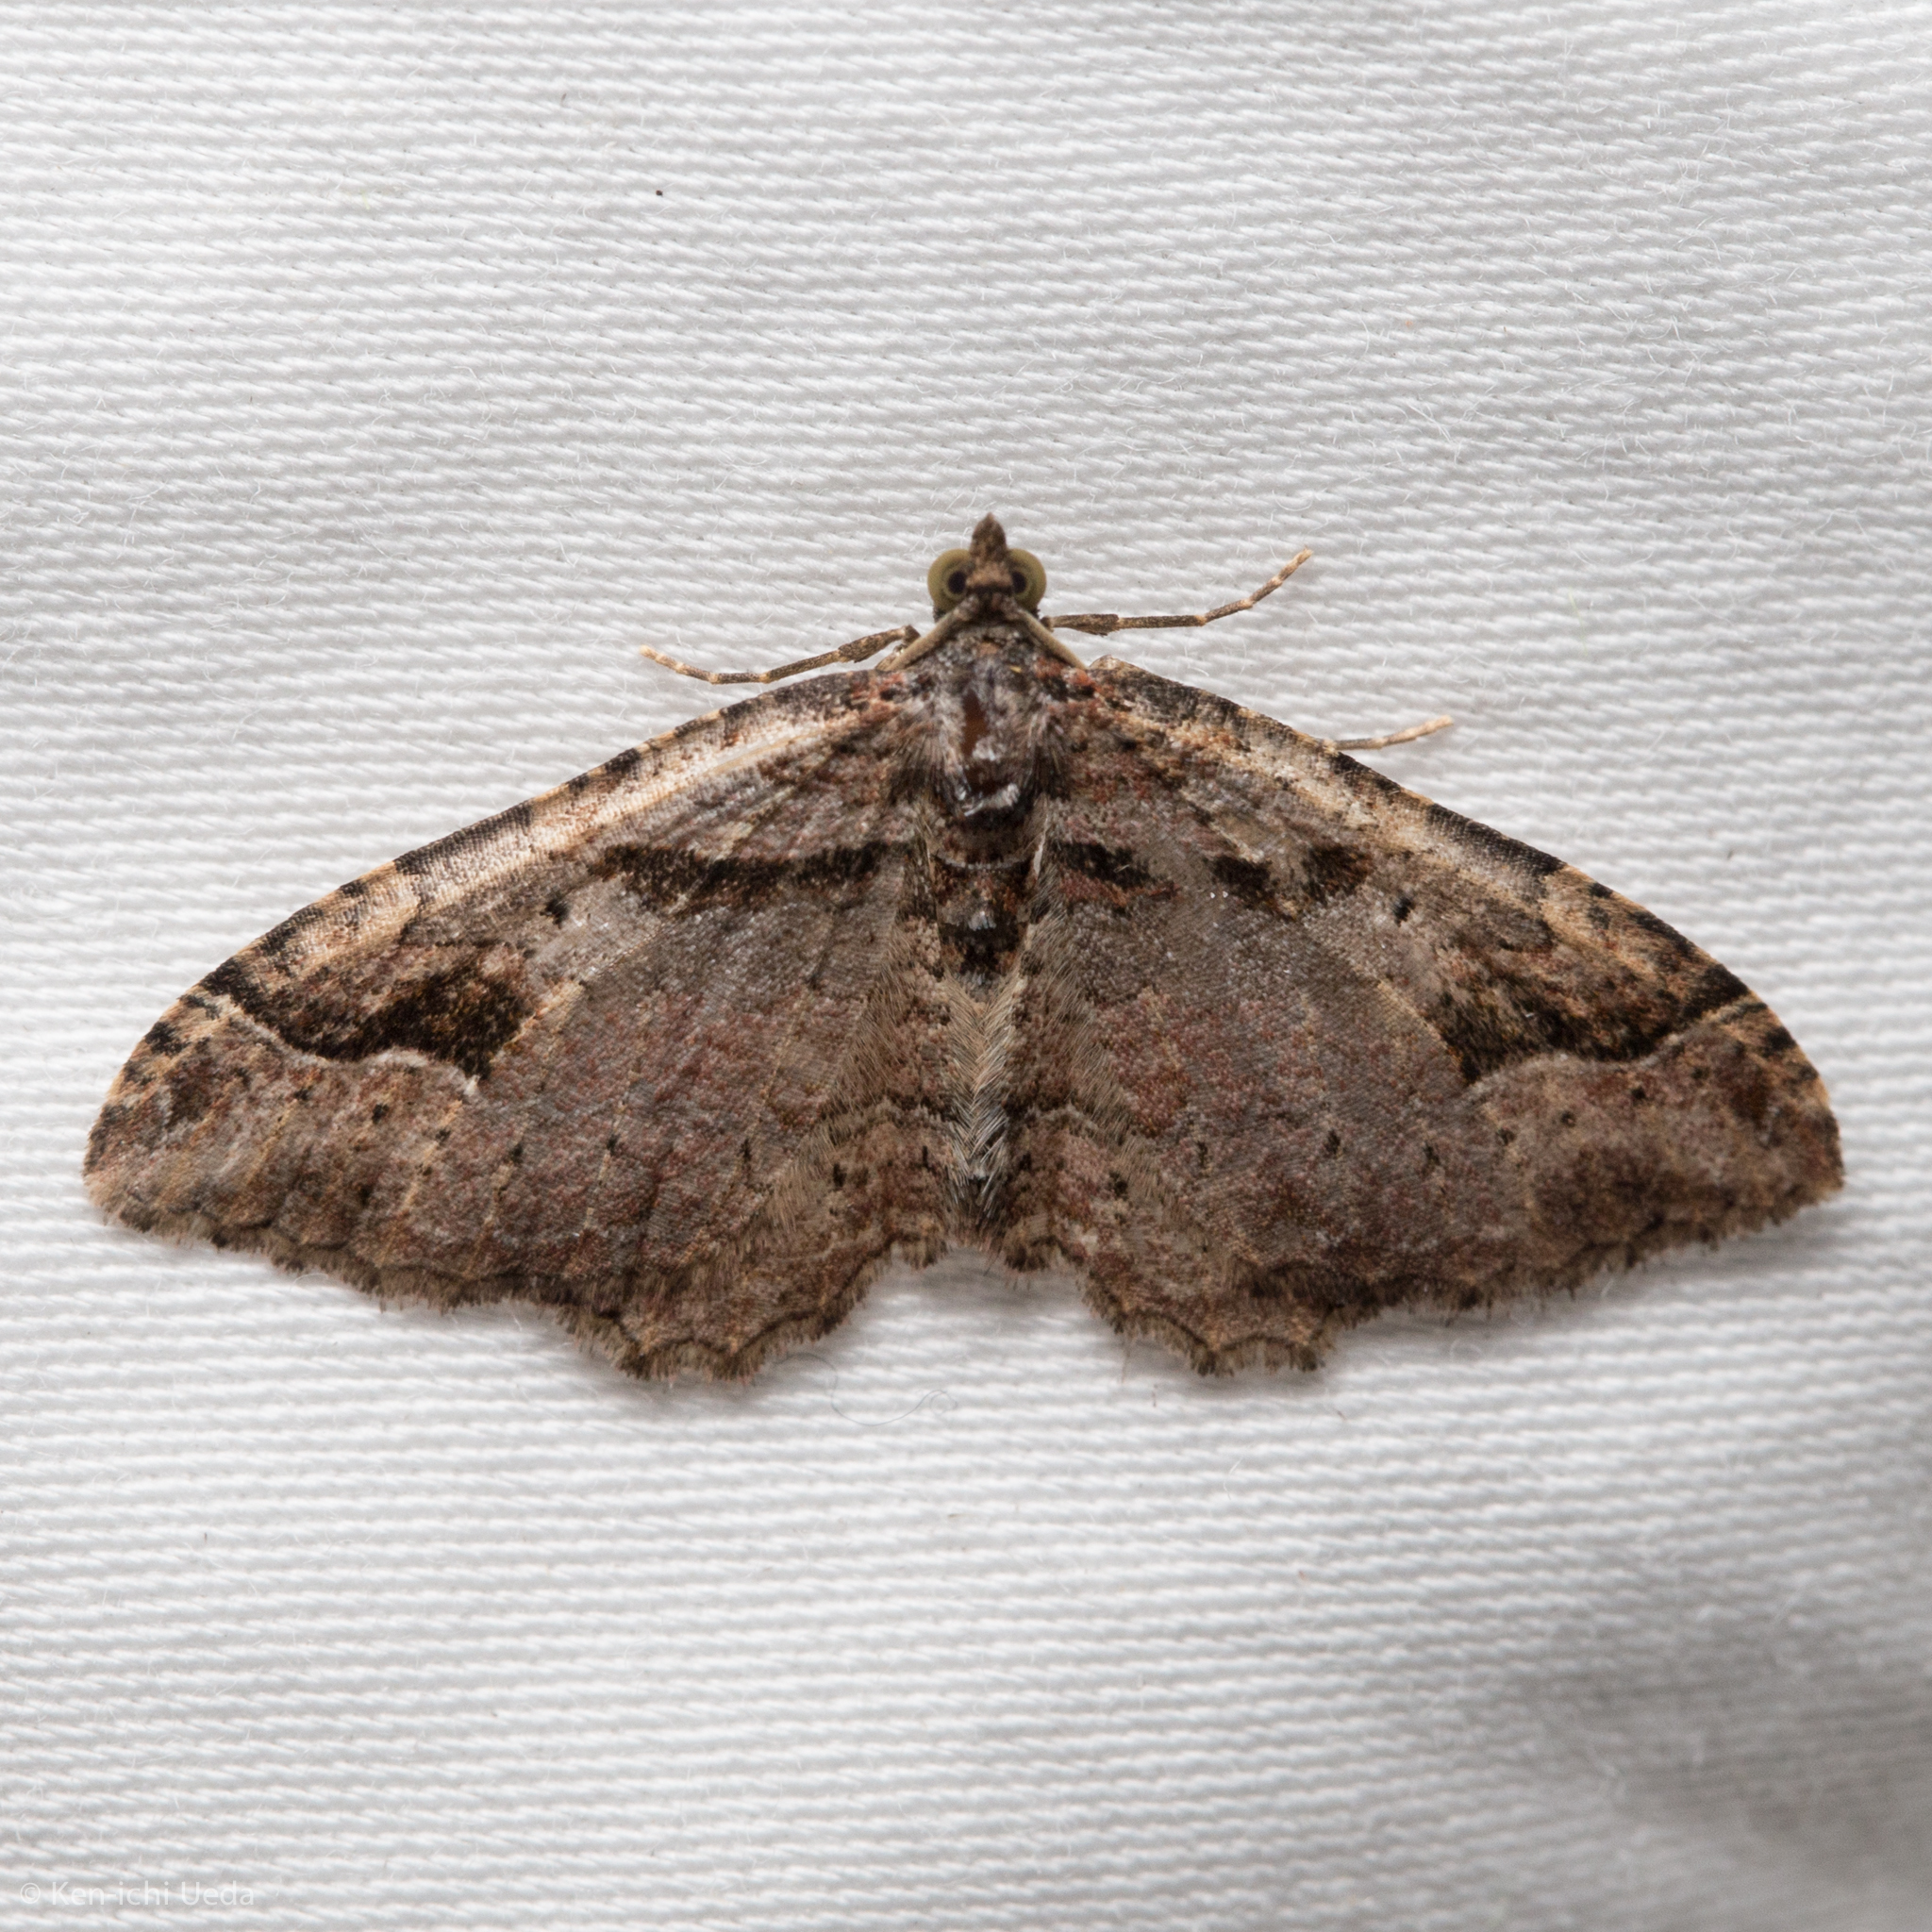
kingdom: Animalia
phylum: Arthropoda
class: Insecta
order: Lepidoptera
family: Geometridae
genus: Costaconvexa
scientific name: Costaconvexa centrostrigaria
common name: Bent-line carpet
